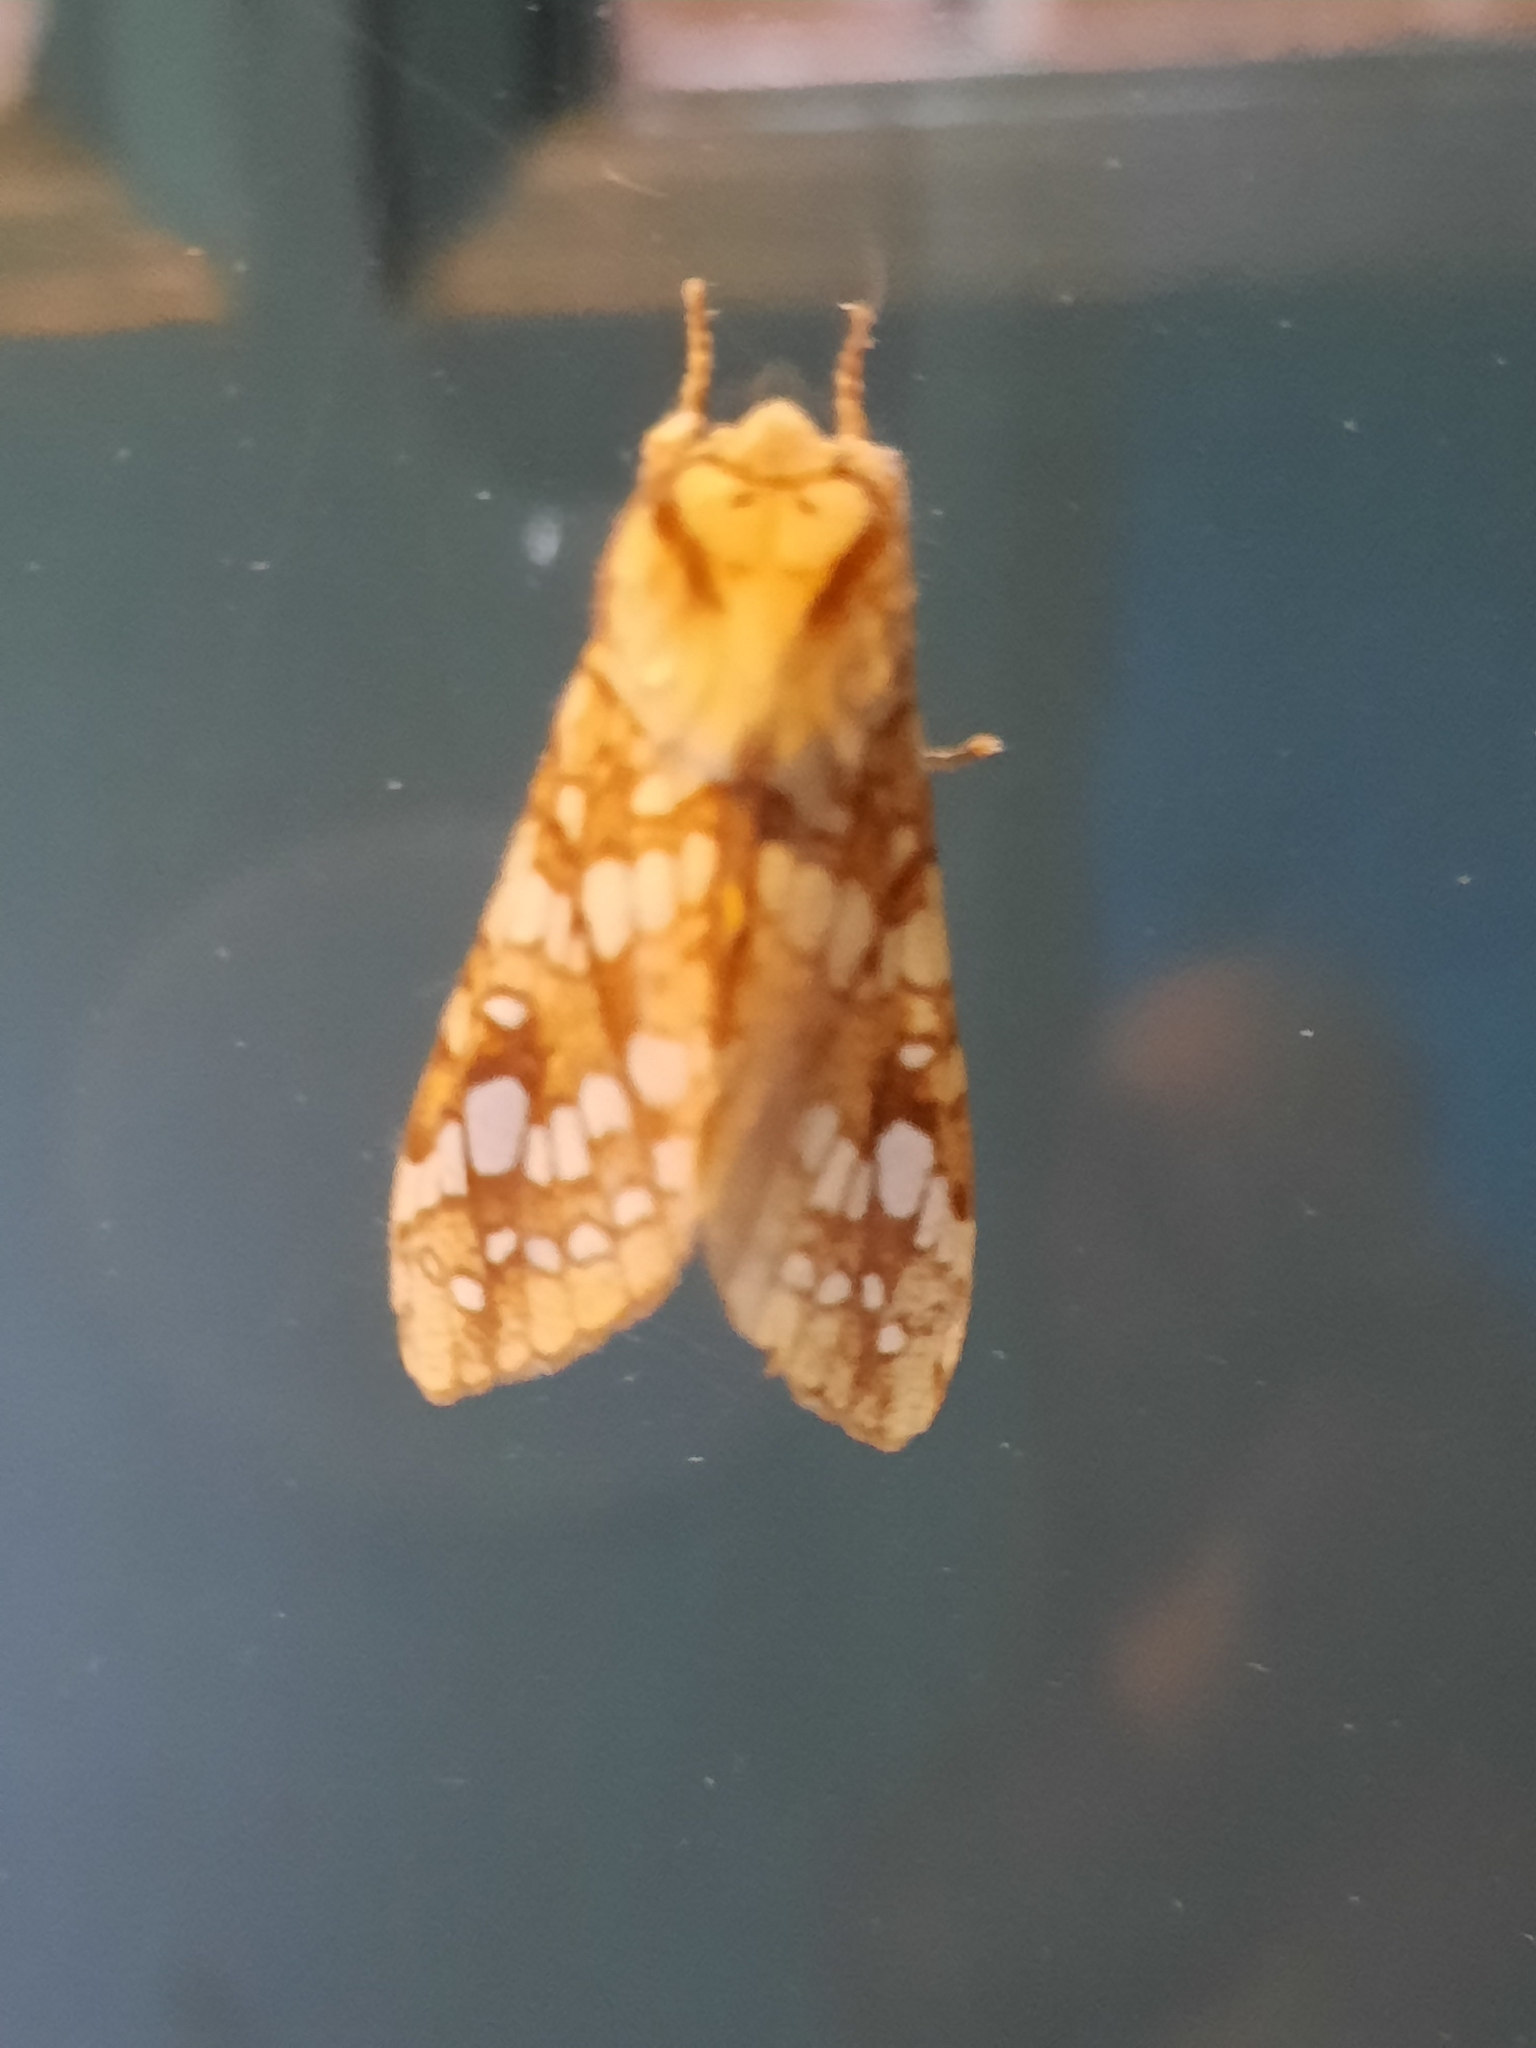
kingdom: Animalia
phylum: Arthropoda
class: Insecta
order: Lepidoptera
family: Erebidae
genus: Lophocampa
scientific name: Lophocampa caryae
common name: Hickory tussock moth
